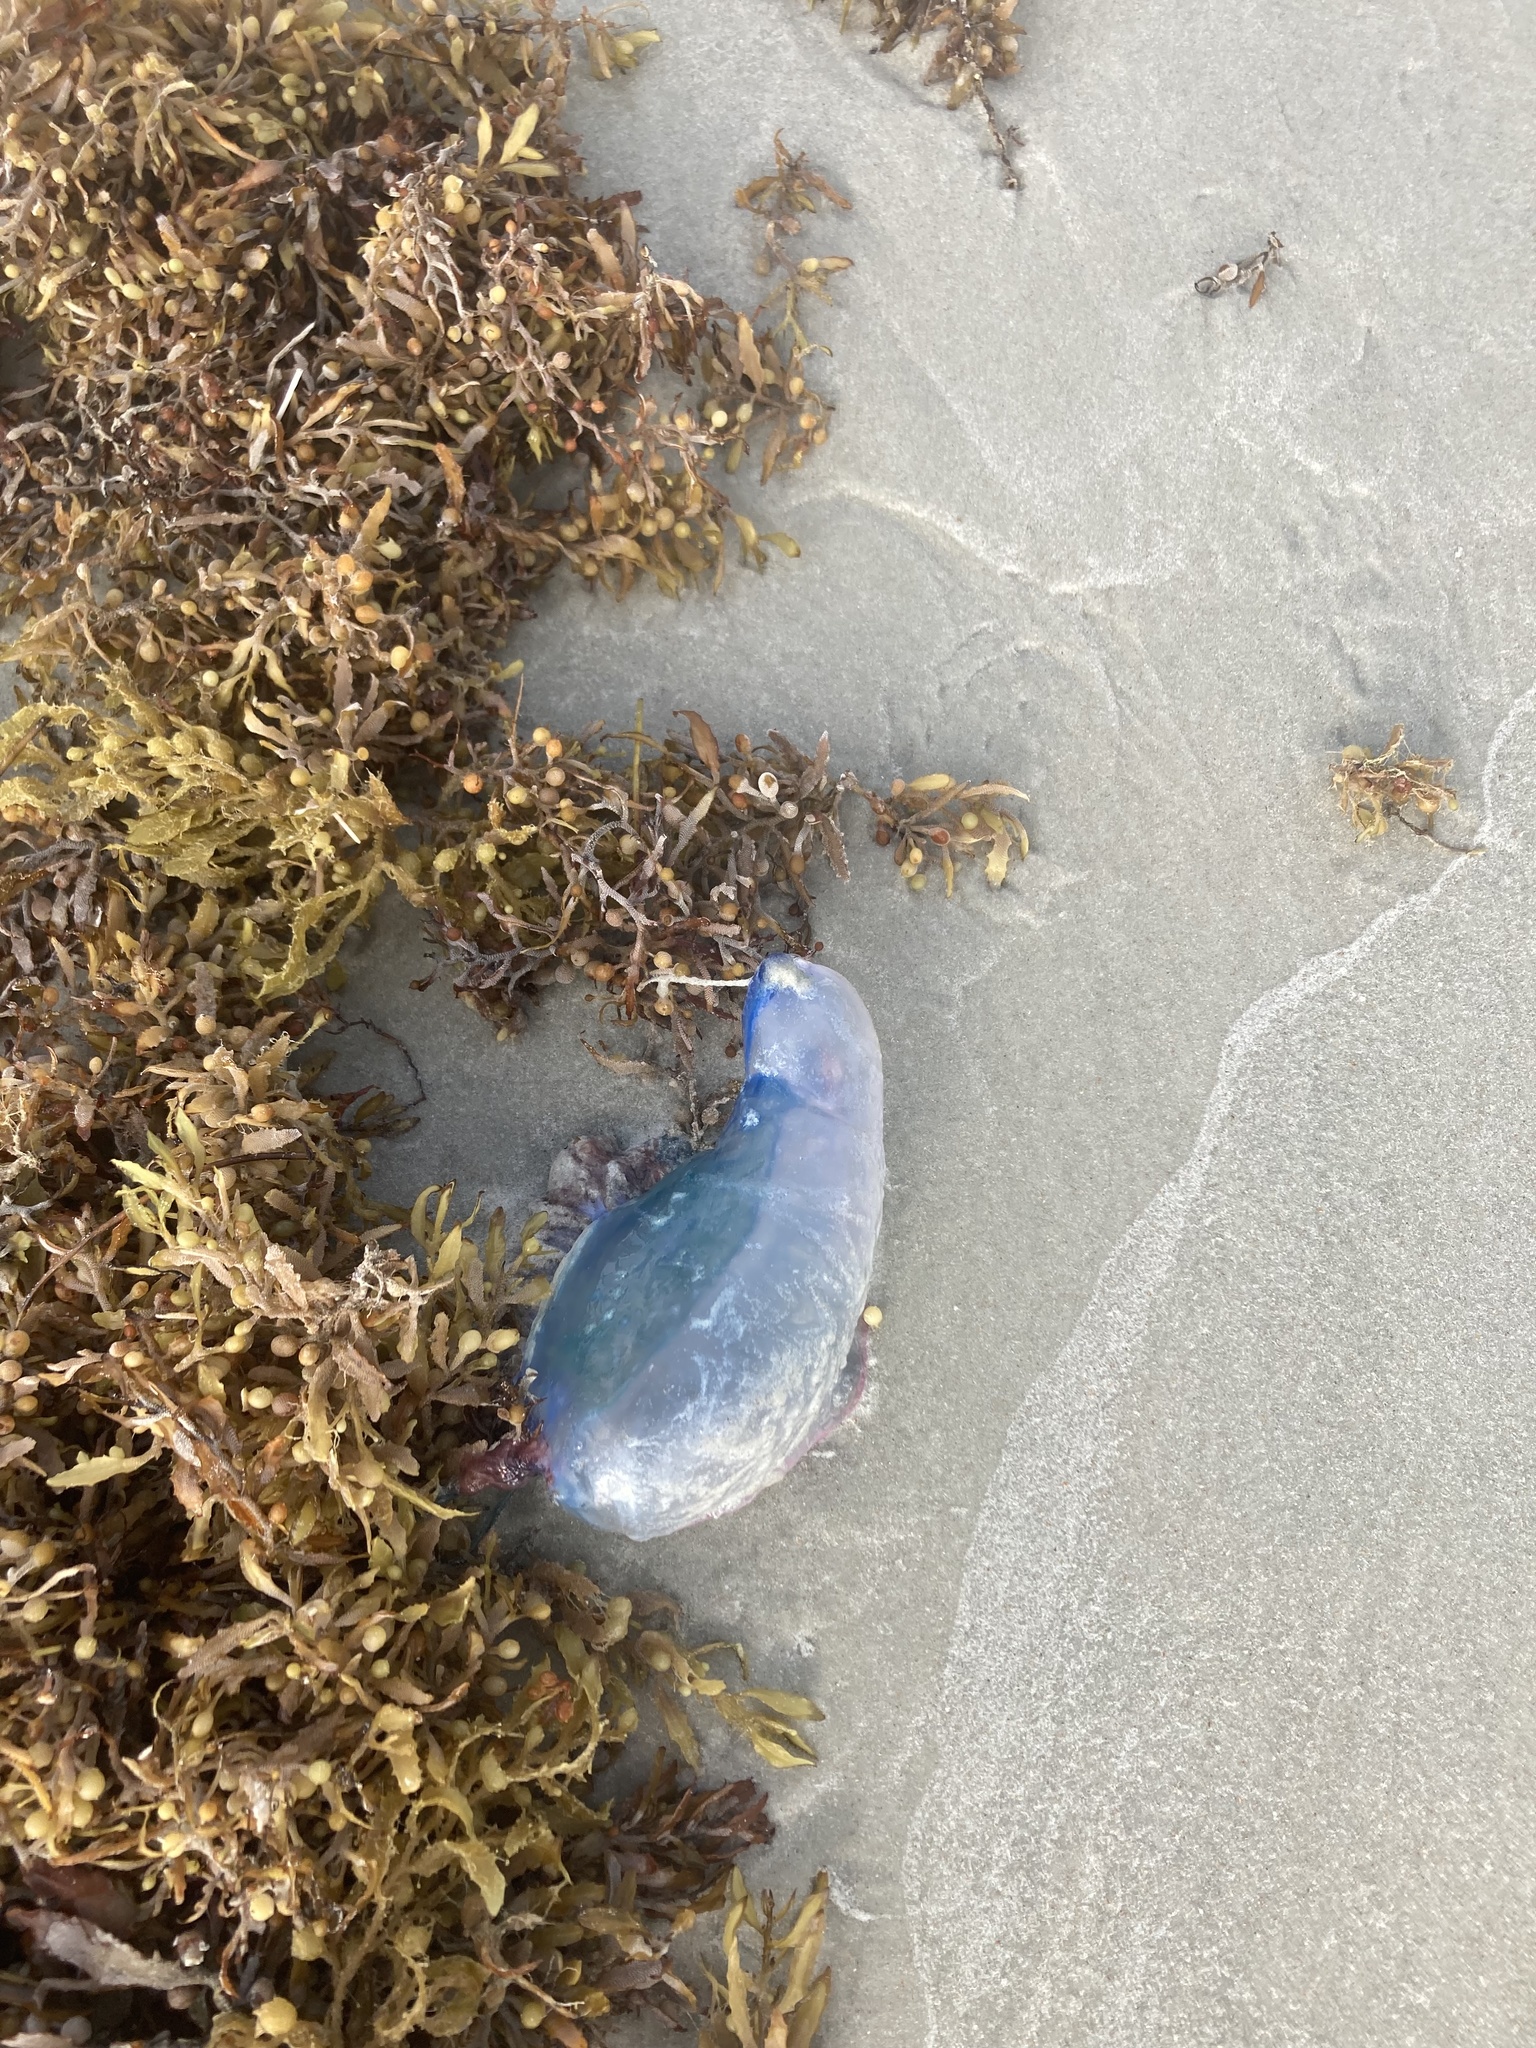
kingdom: Animalia
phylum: Cnidaria
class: Hydrozoa
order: Siphonophorae
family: Physaliidae
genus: Physalia
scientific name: Physalia physalis
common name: Portuguese man-of-war
